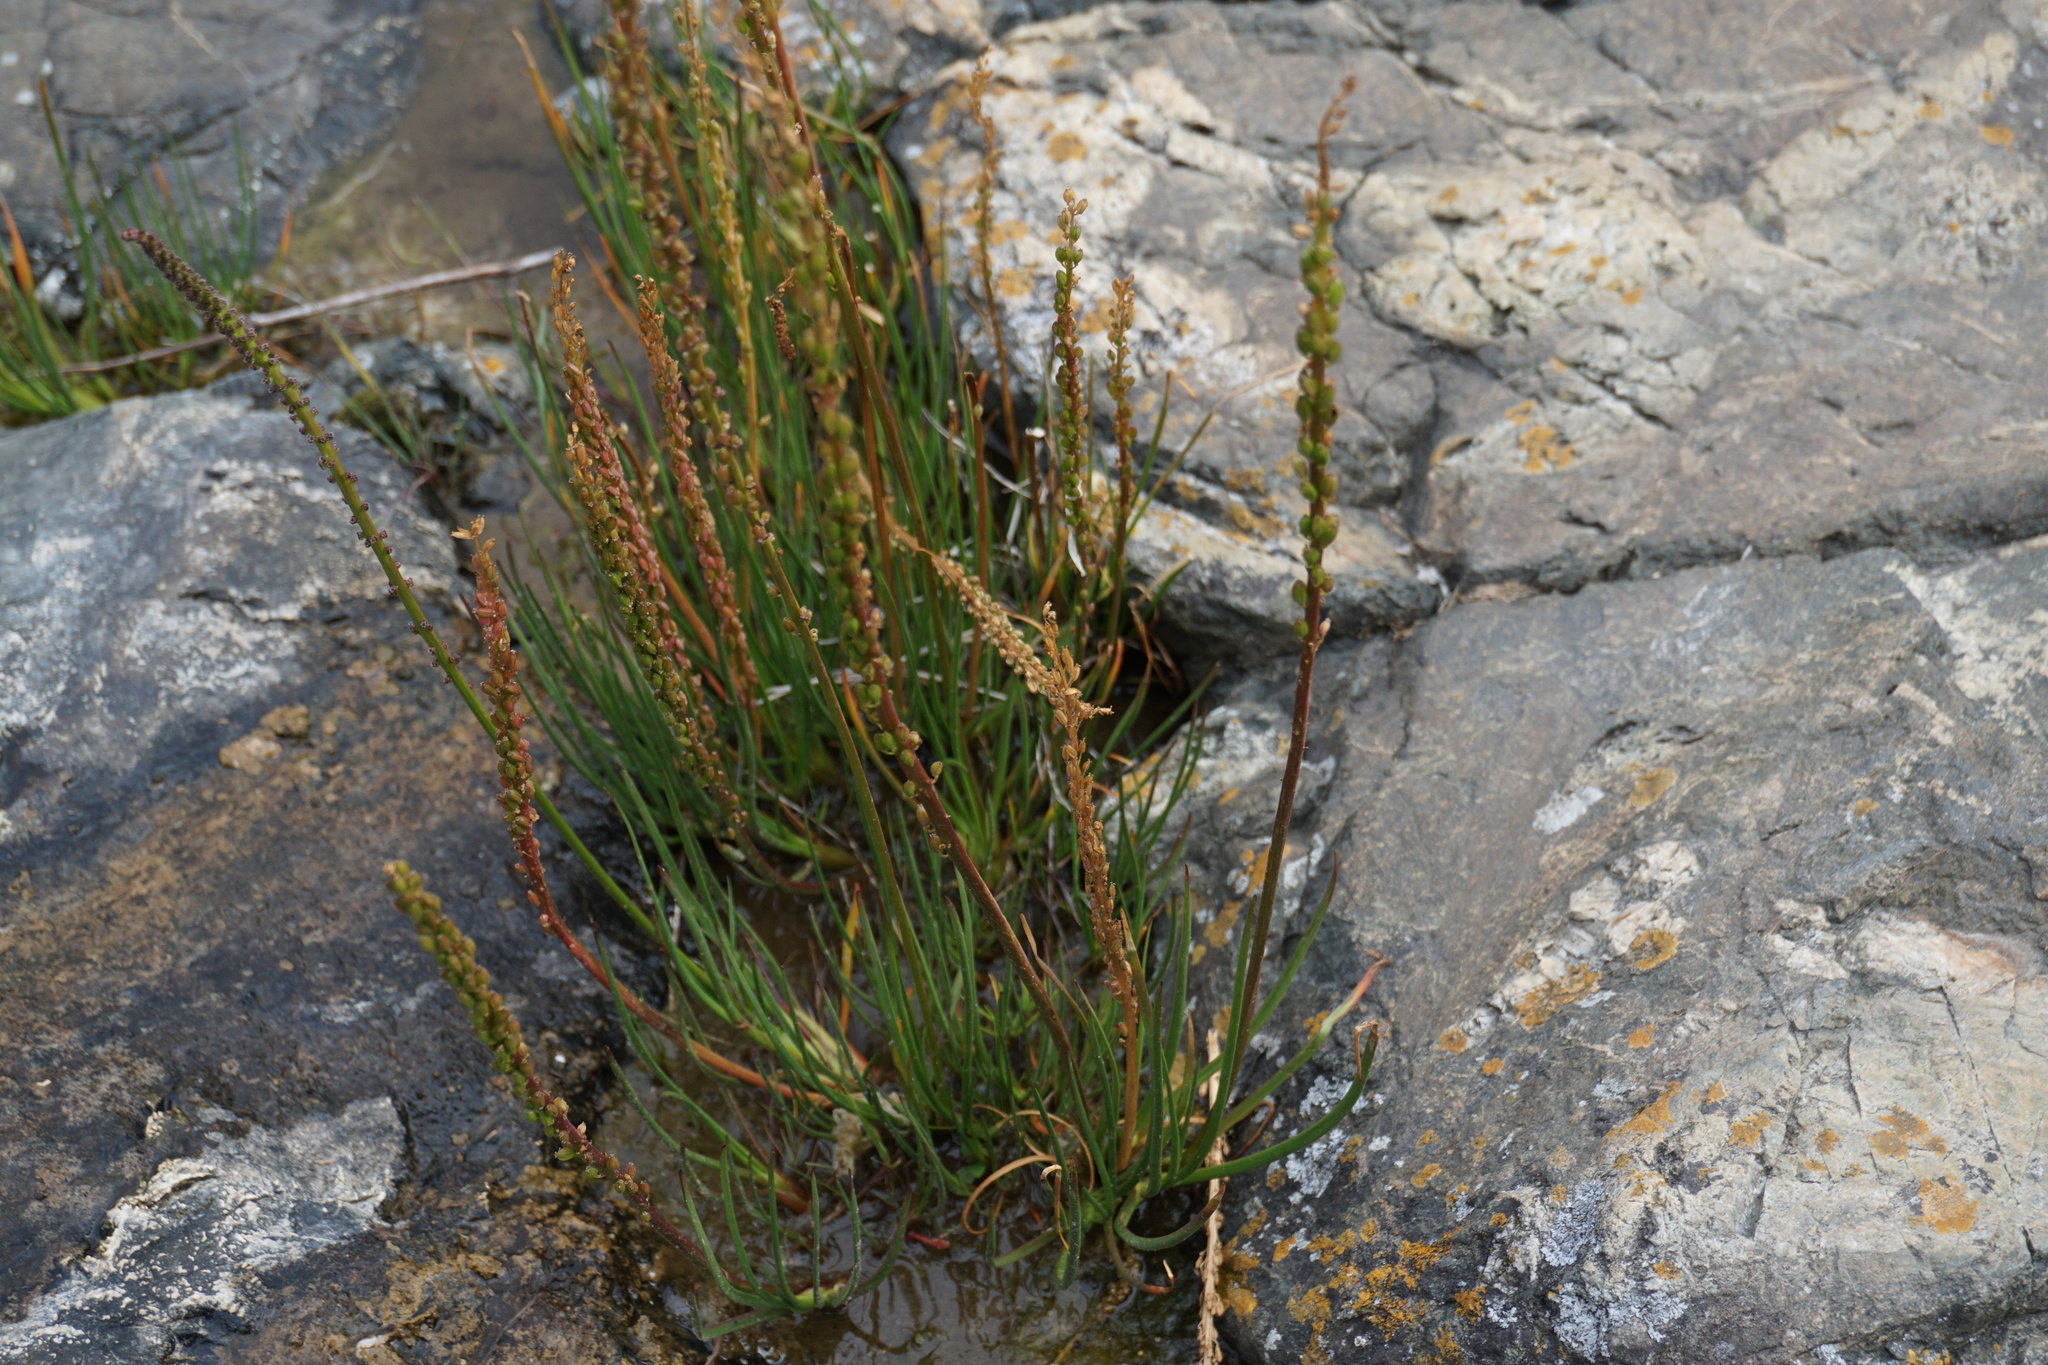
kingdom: Plantae
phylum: Tracheophyta
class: Liliopsida
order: Alismatales
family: Juncaginaceae
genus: Triglochin
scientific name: Triglochin maritima
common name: Sea arrowgrass
